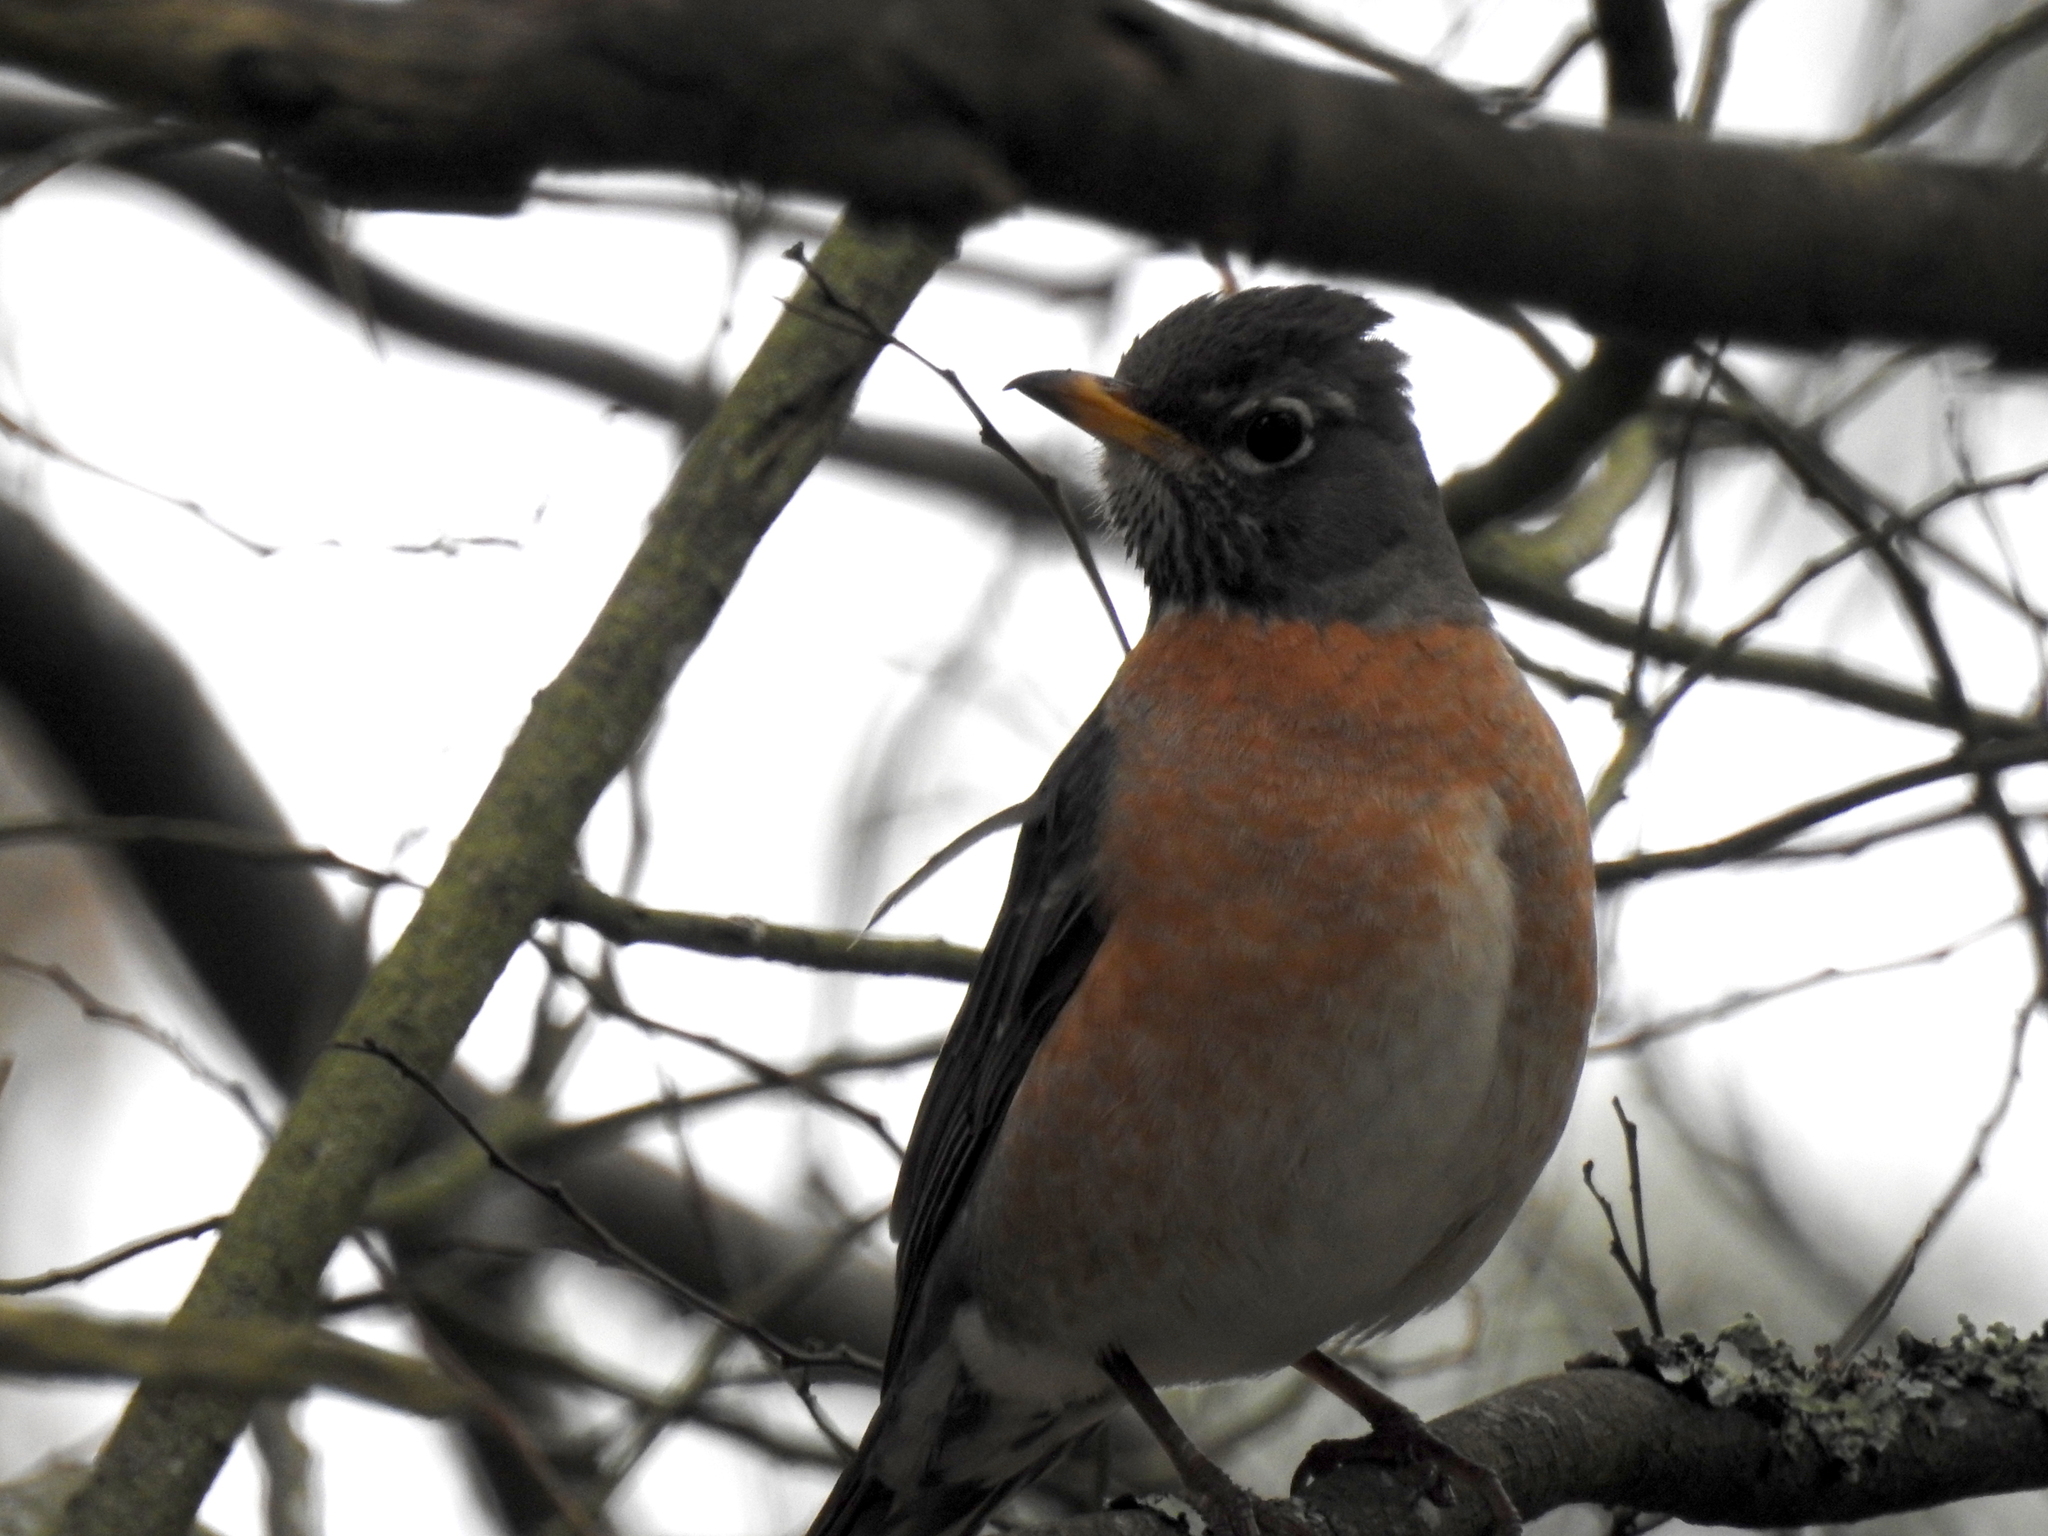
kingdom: Animalia
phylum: Chordata
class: Aves
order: Passeriformes
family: Turdidae
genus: Turdus
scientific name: Turdus migratorius
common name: American robin
